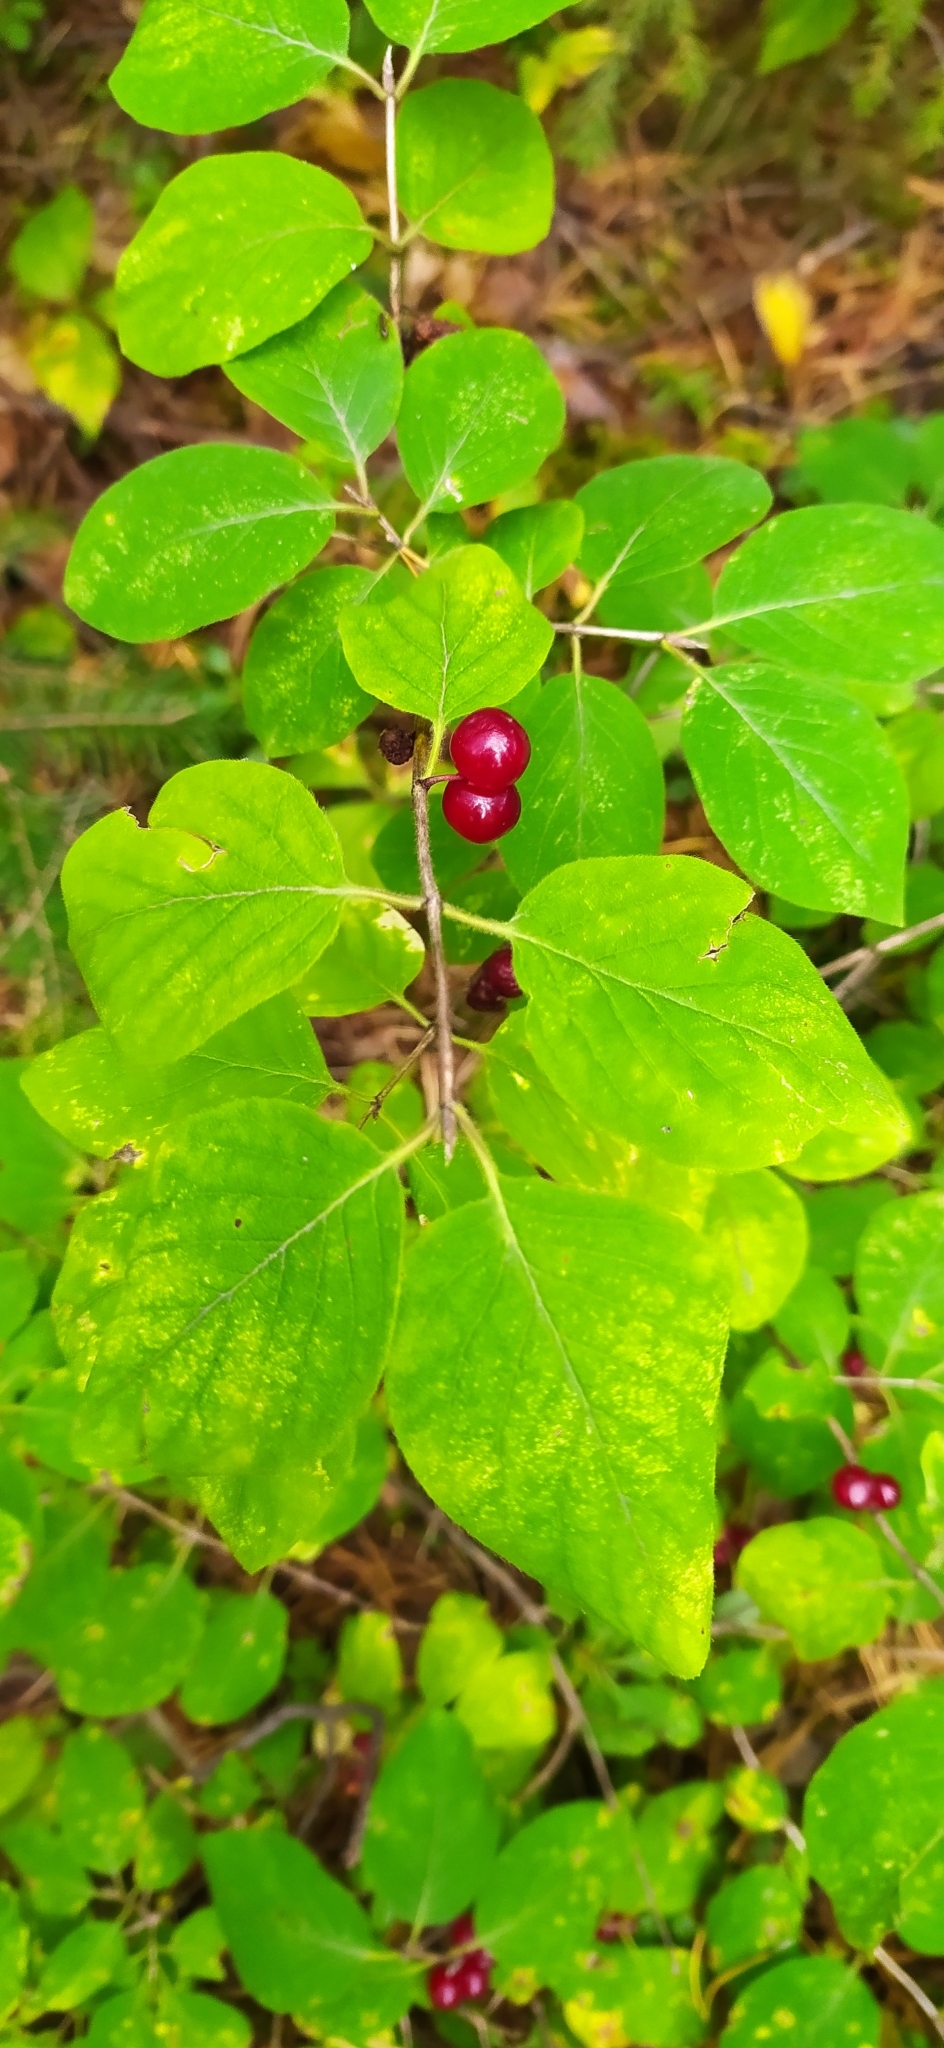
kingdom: Plantae
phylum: Tracheophyta
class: Magnoliopsida
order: Dipsacales
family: Caprifoliaceae
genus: Lonicera
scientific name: Lonicera xylosteum
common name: Fly honeysuckle
